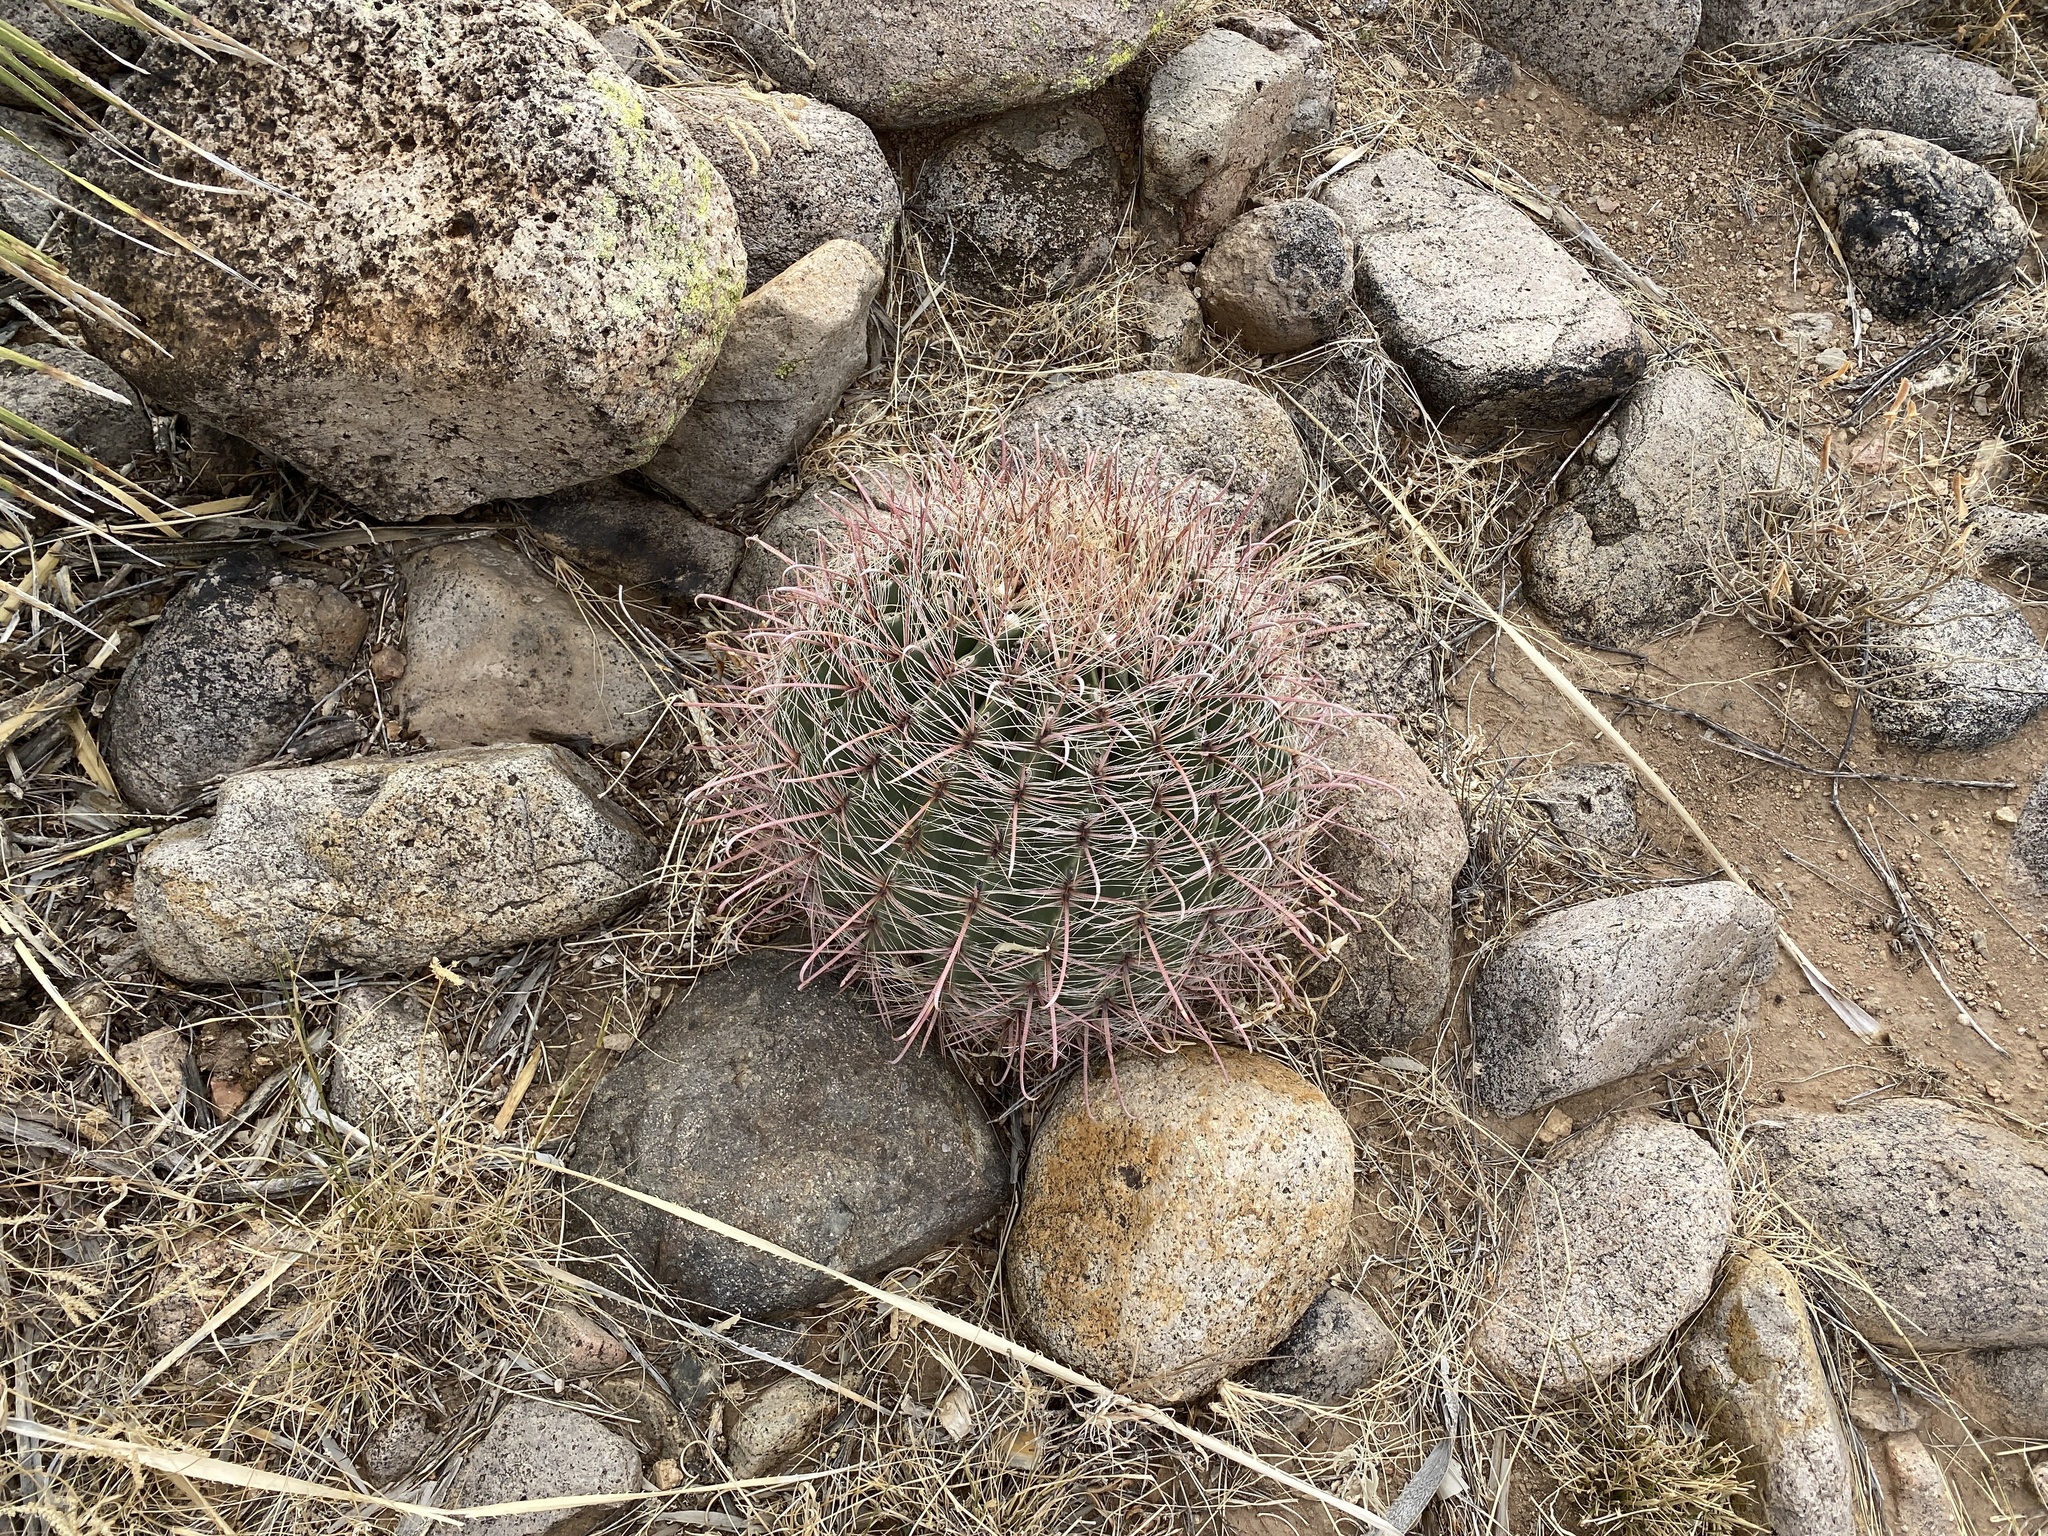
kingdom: Plantae
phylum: Tracheophyta
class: Magnoliopsida
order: Caryophyllales
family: Cactaceae
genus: Ferocactus
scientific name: Ferocactus wislizeni
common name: Candy barrel cactus
